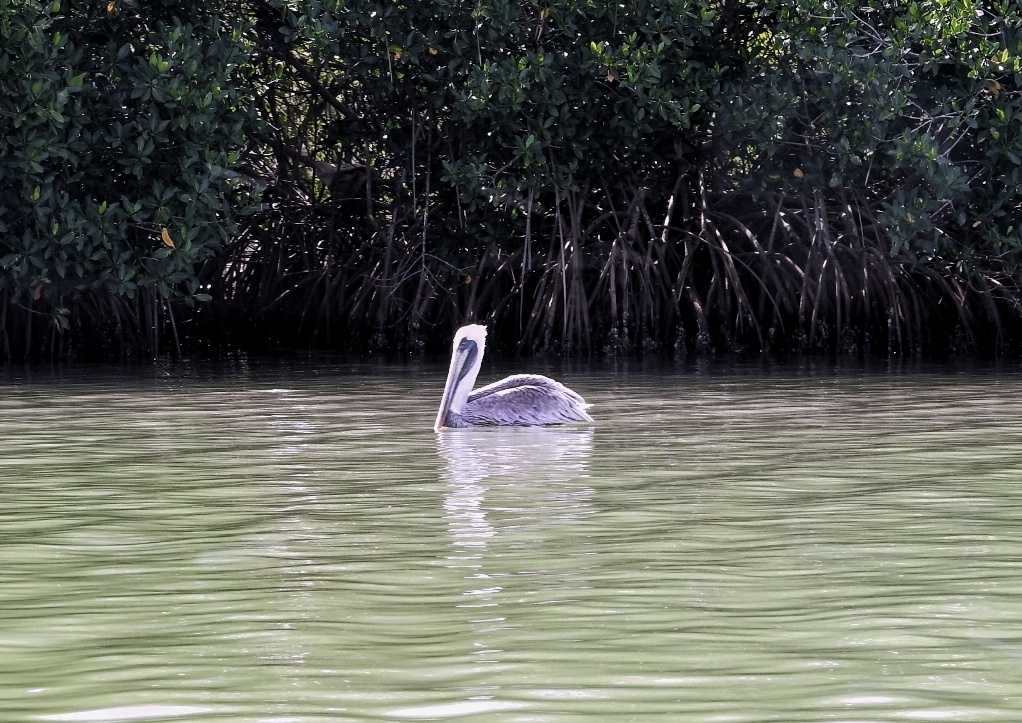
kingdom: Animalia
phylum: Chordata
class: Aves
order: Pelecaniformes
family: Pelecanidae
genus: Pelecanus
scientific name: Pelecanus occidentalis
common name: Brown pelican
